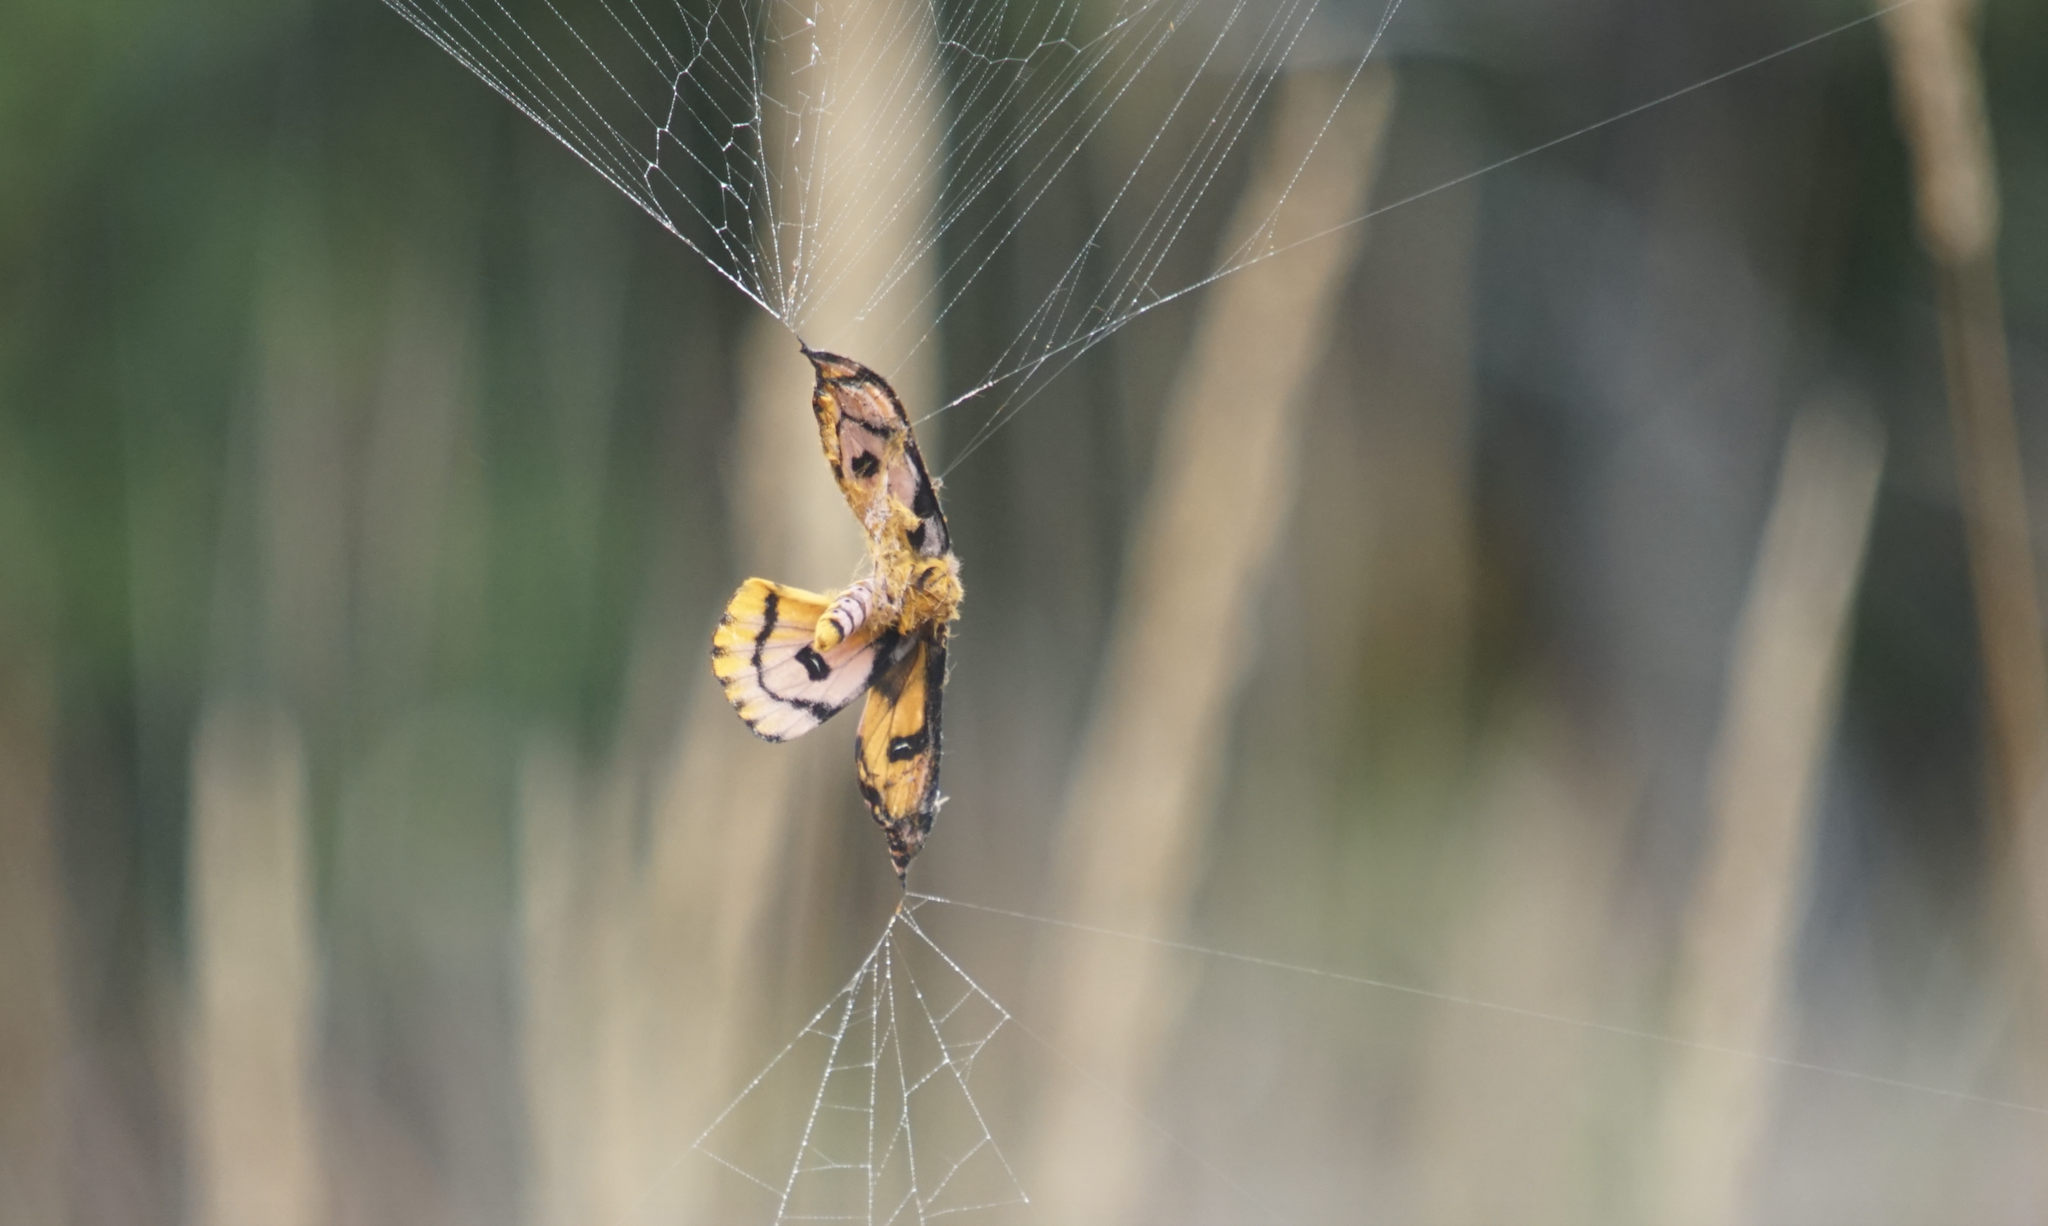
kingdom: Animalia
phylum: Arthropoda
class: Insecta
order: Lepidoptera
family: Saturniidae
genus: Hemileuca
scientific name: Hemileuca eglanterina
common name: Western sheepmoth
